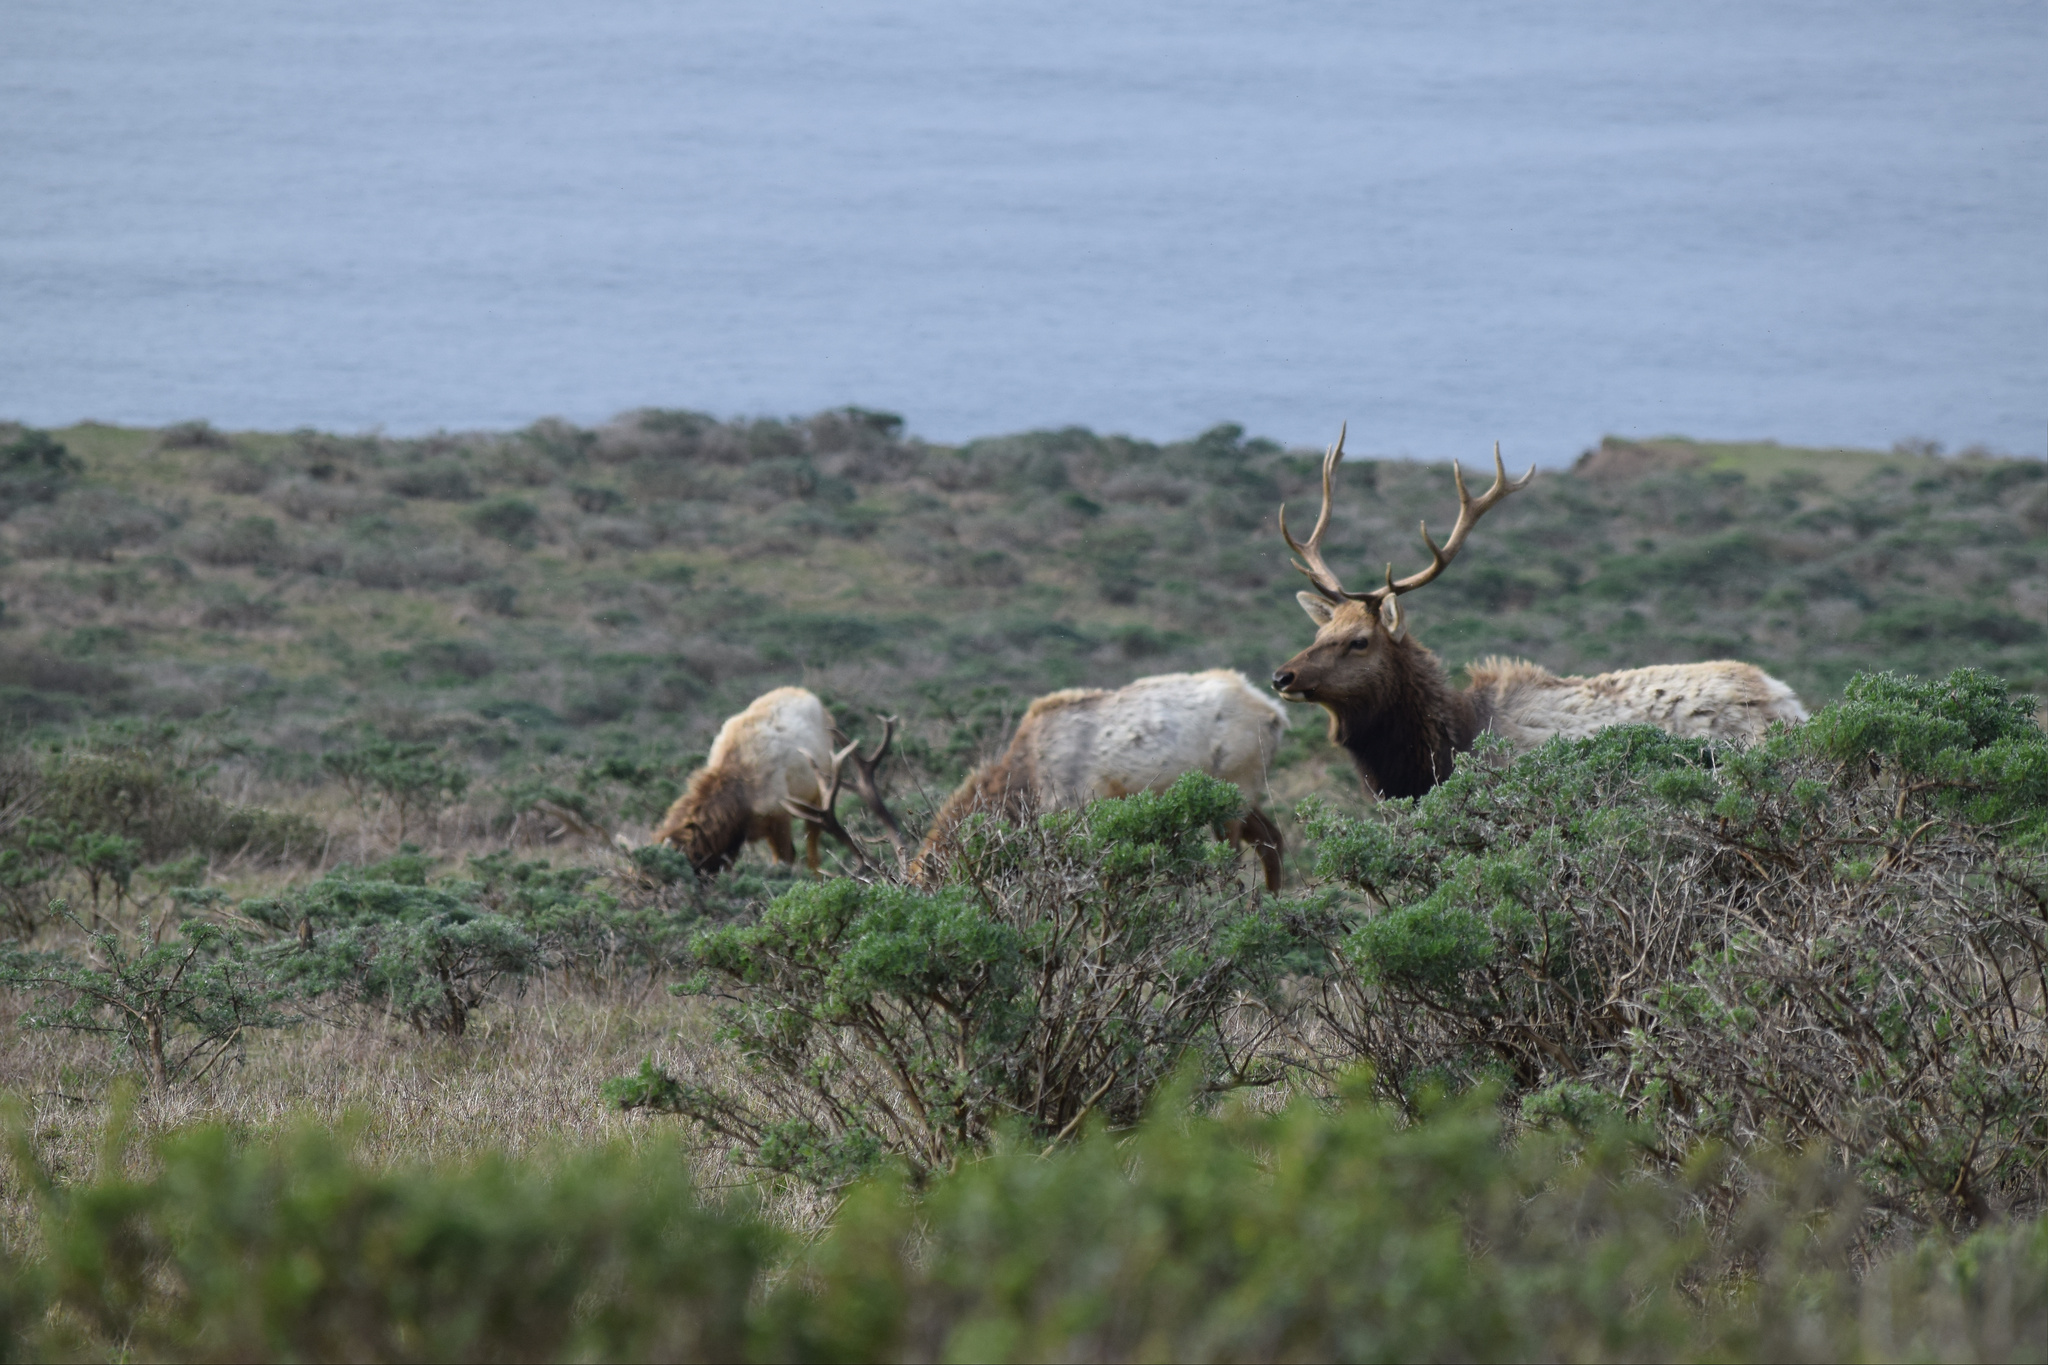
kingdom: Animalia
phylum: Chordata
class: Mammalia
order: Artiodactyla
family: Cervidae
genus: Cervus
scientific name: Cervus elaphus
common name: Red deer
